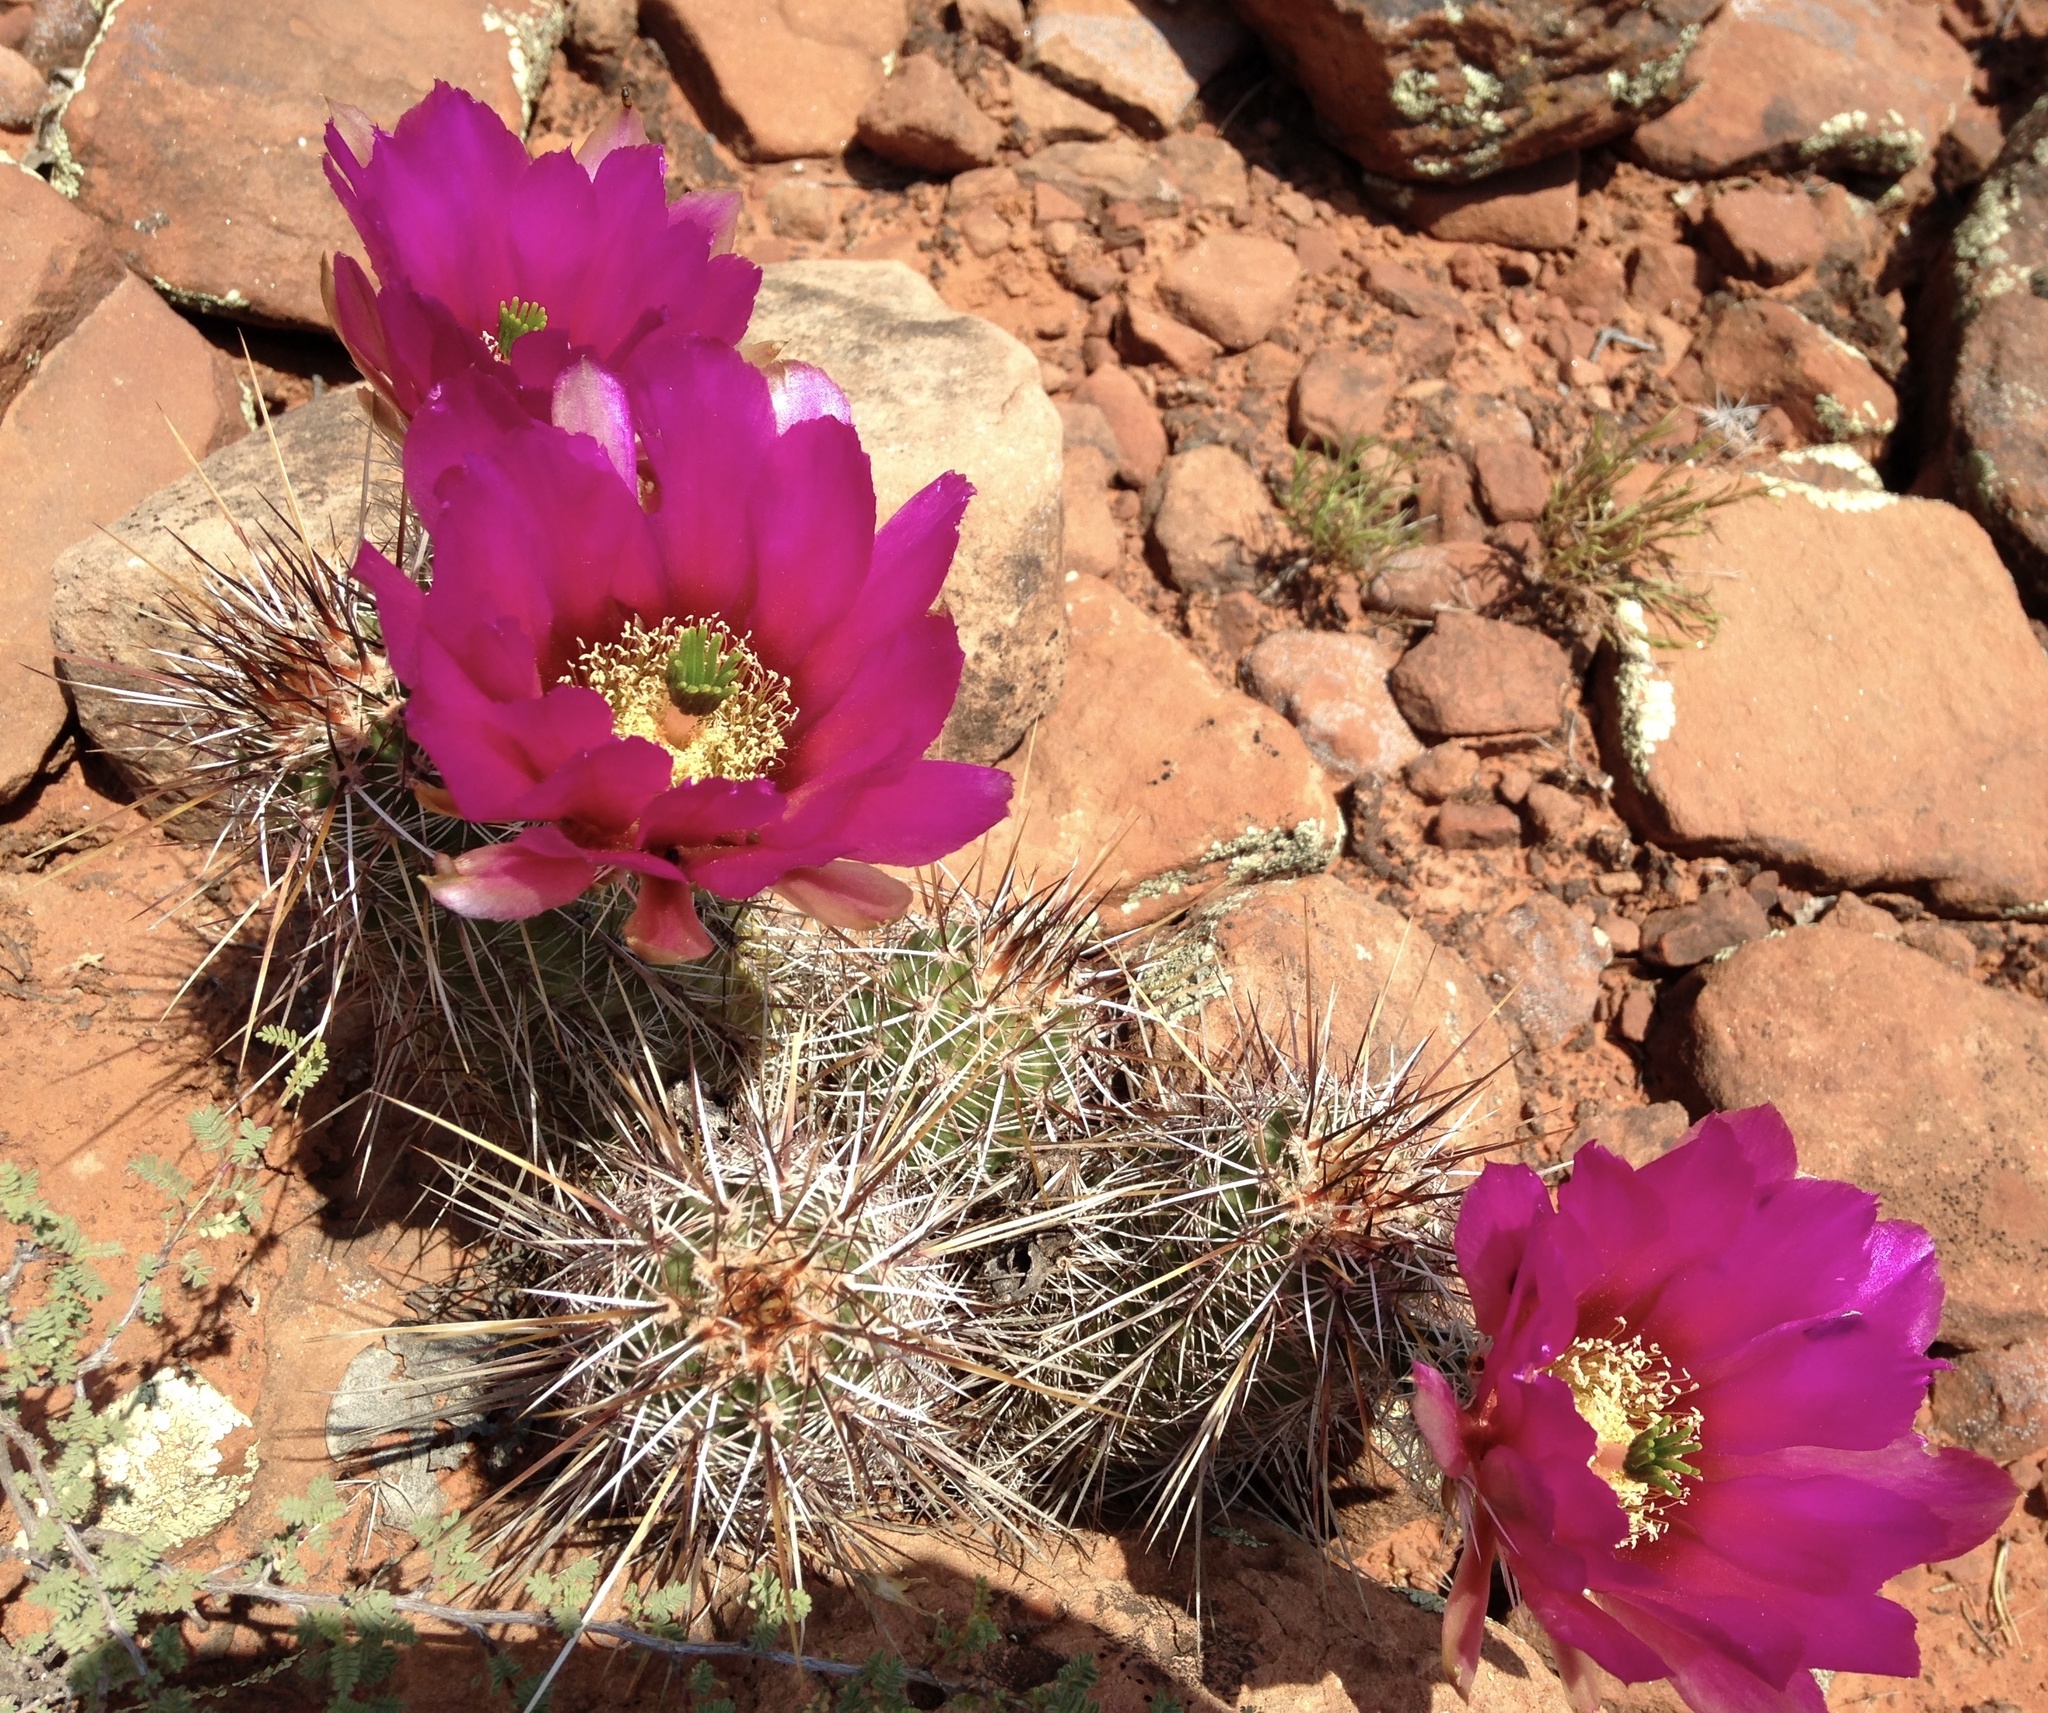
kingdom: Plantae
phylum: Tracheophyta
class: Magnoliopsida
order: Caryophyllales
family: Cactaceae
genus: Echinocereus
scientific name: Echinocereus fasciculatus
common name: Bundle hedgehog
